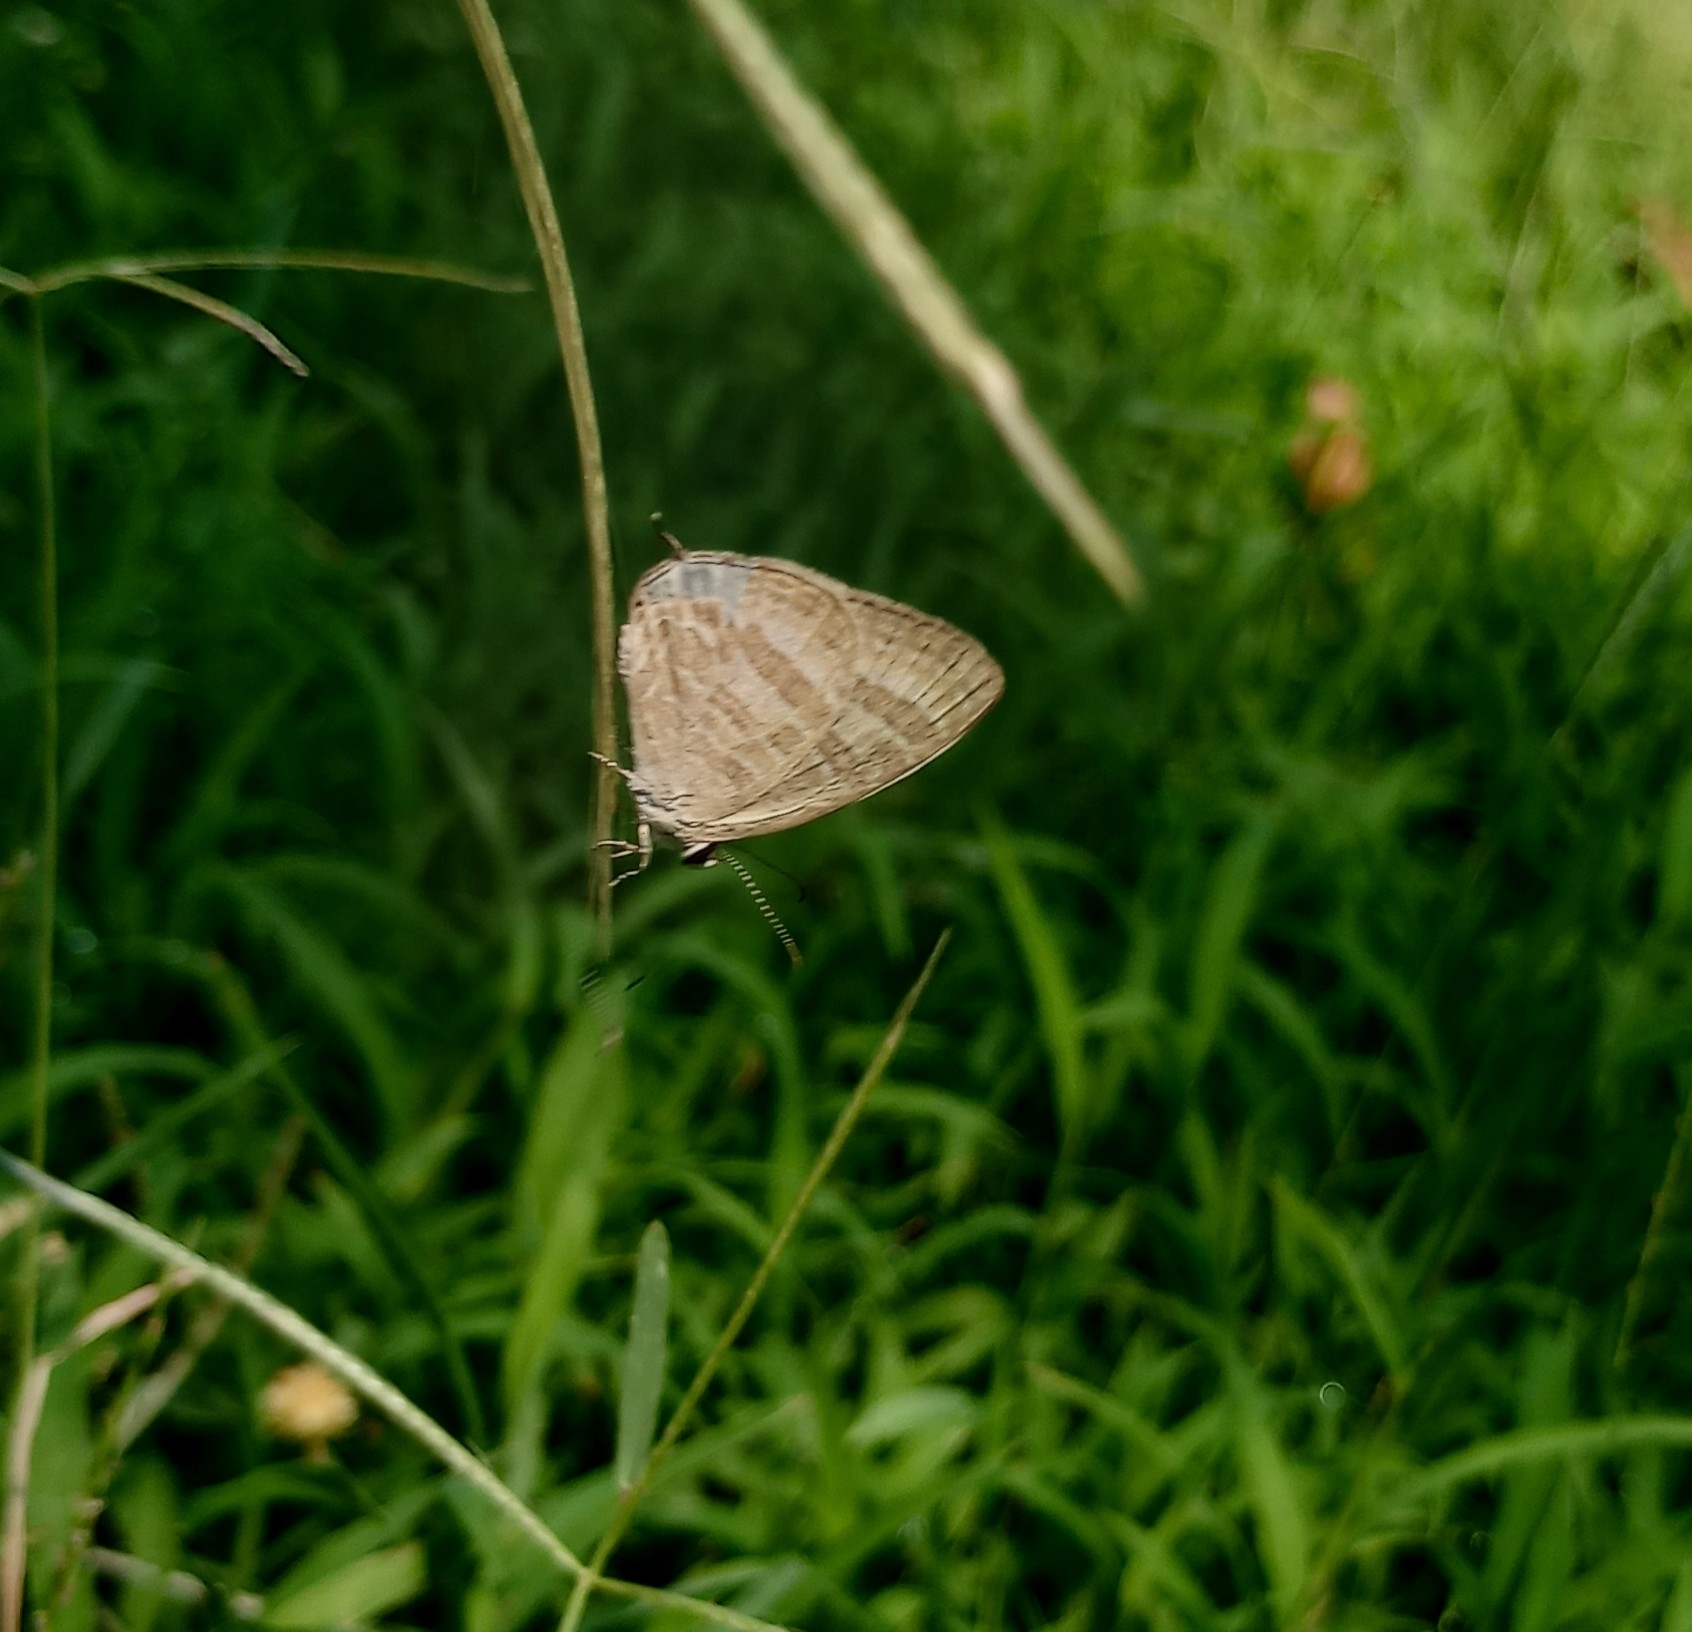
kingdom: Animalia
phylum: Arthropoda
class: Insecta
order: Lepidoptera
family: Lycaenidae
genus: Jamides
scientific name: Jamides celeno
